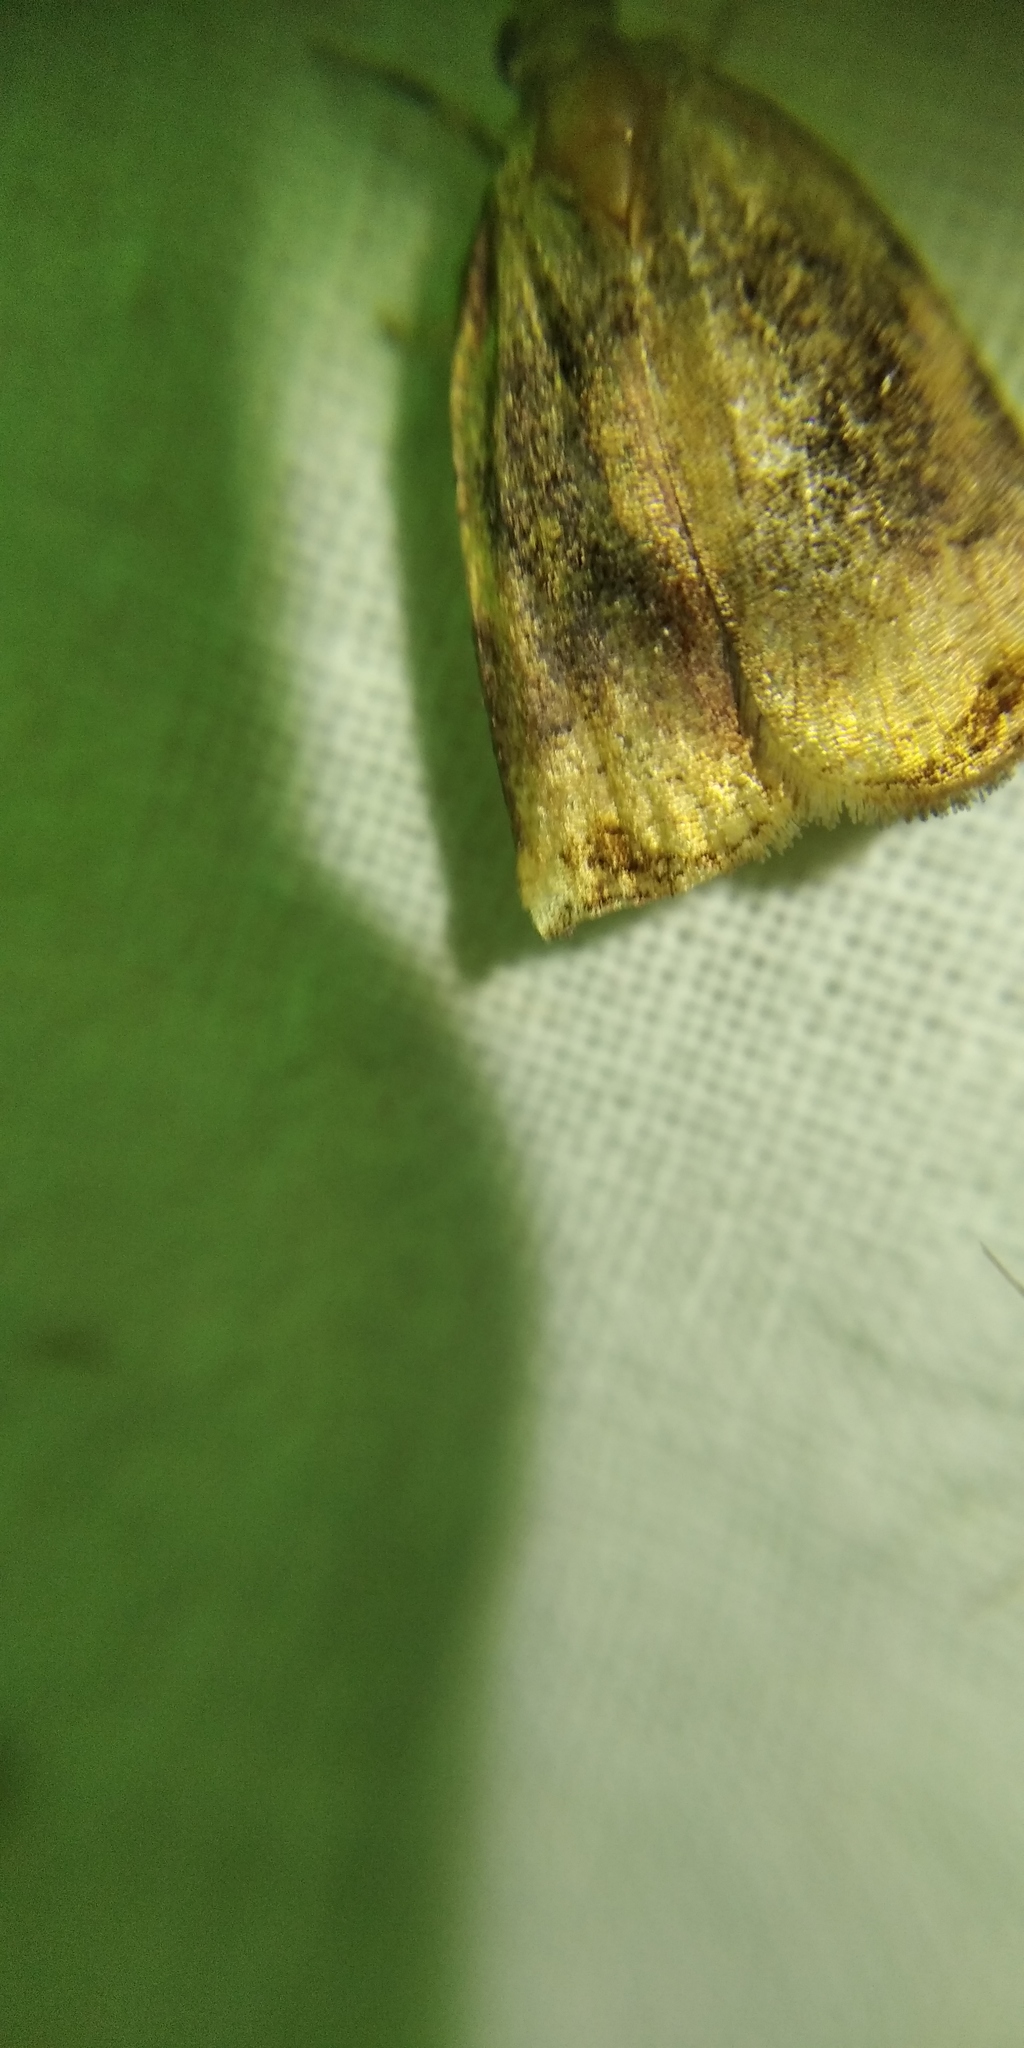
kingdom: Animalia
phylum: Arthropoda
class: Insecta
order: Lepidoptera
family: Tortricidae
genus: Archips
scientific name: Archips podana
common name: Large fruit-tree tortrix
